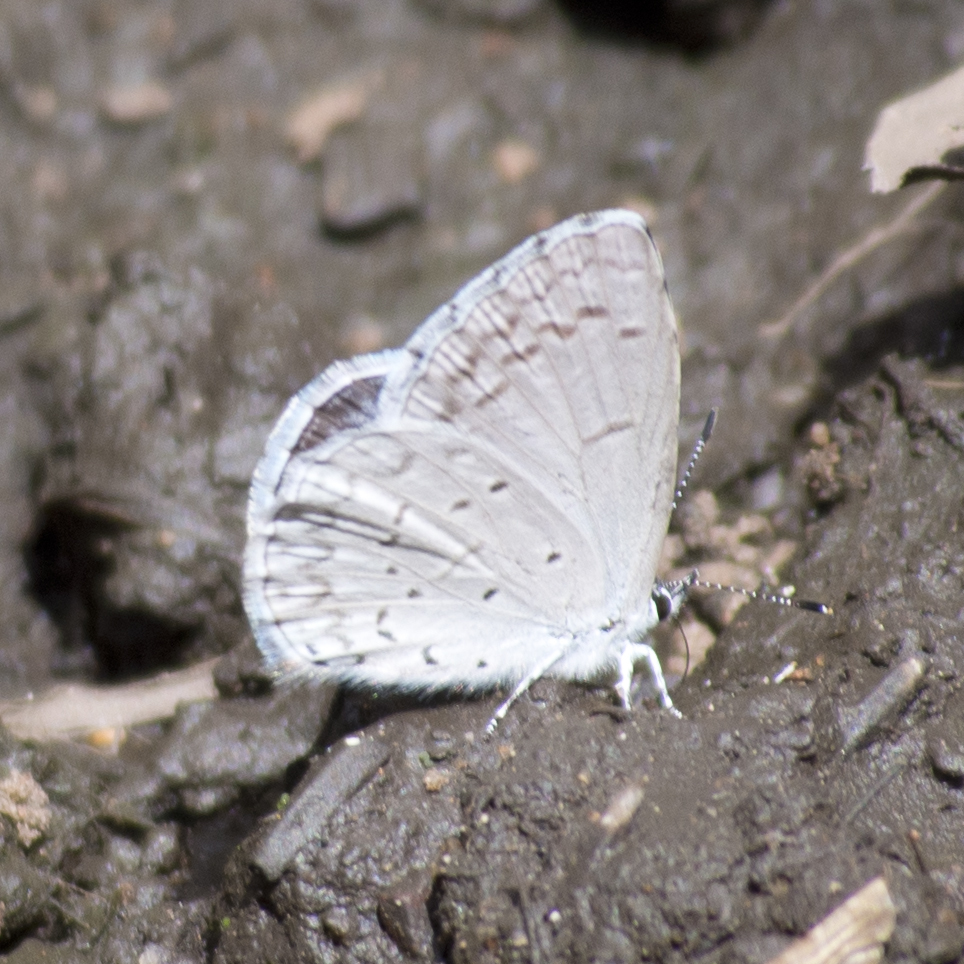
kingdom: Animalia
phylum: Arthropoda
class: Insecta
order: Lepidoptera
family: Lycaenidae
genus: Celastrina
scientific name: Celastrina argiolus
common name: Holly blue
